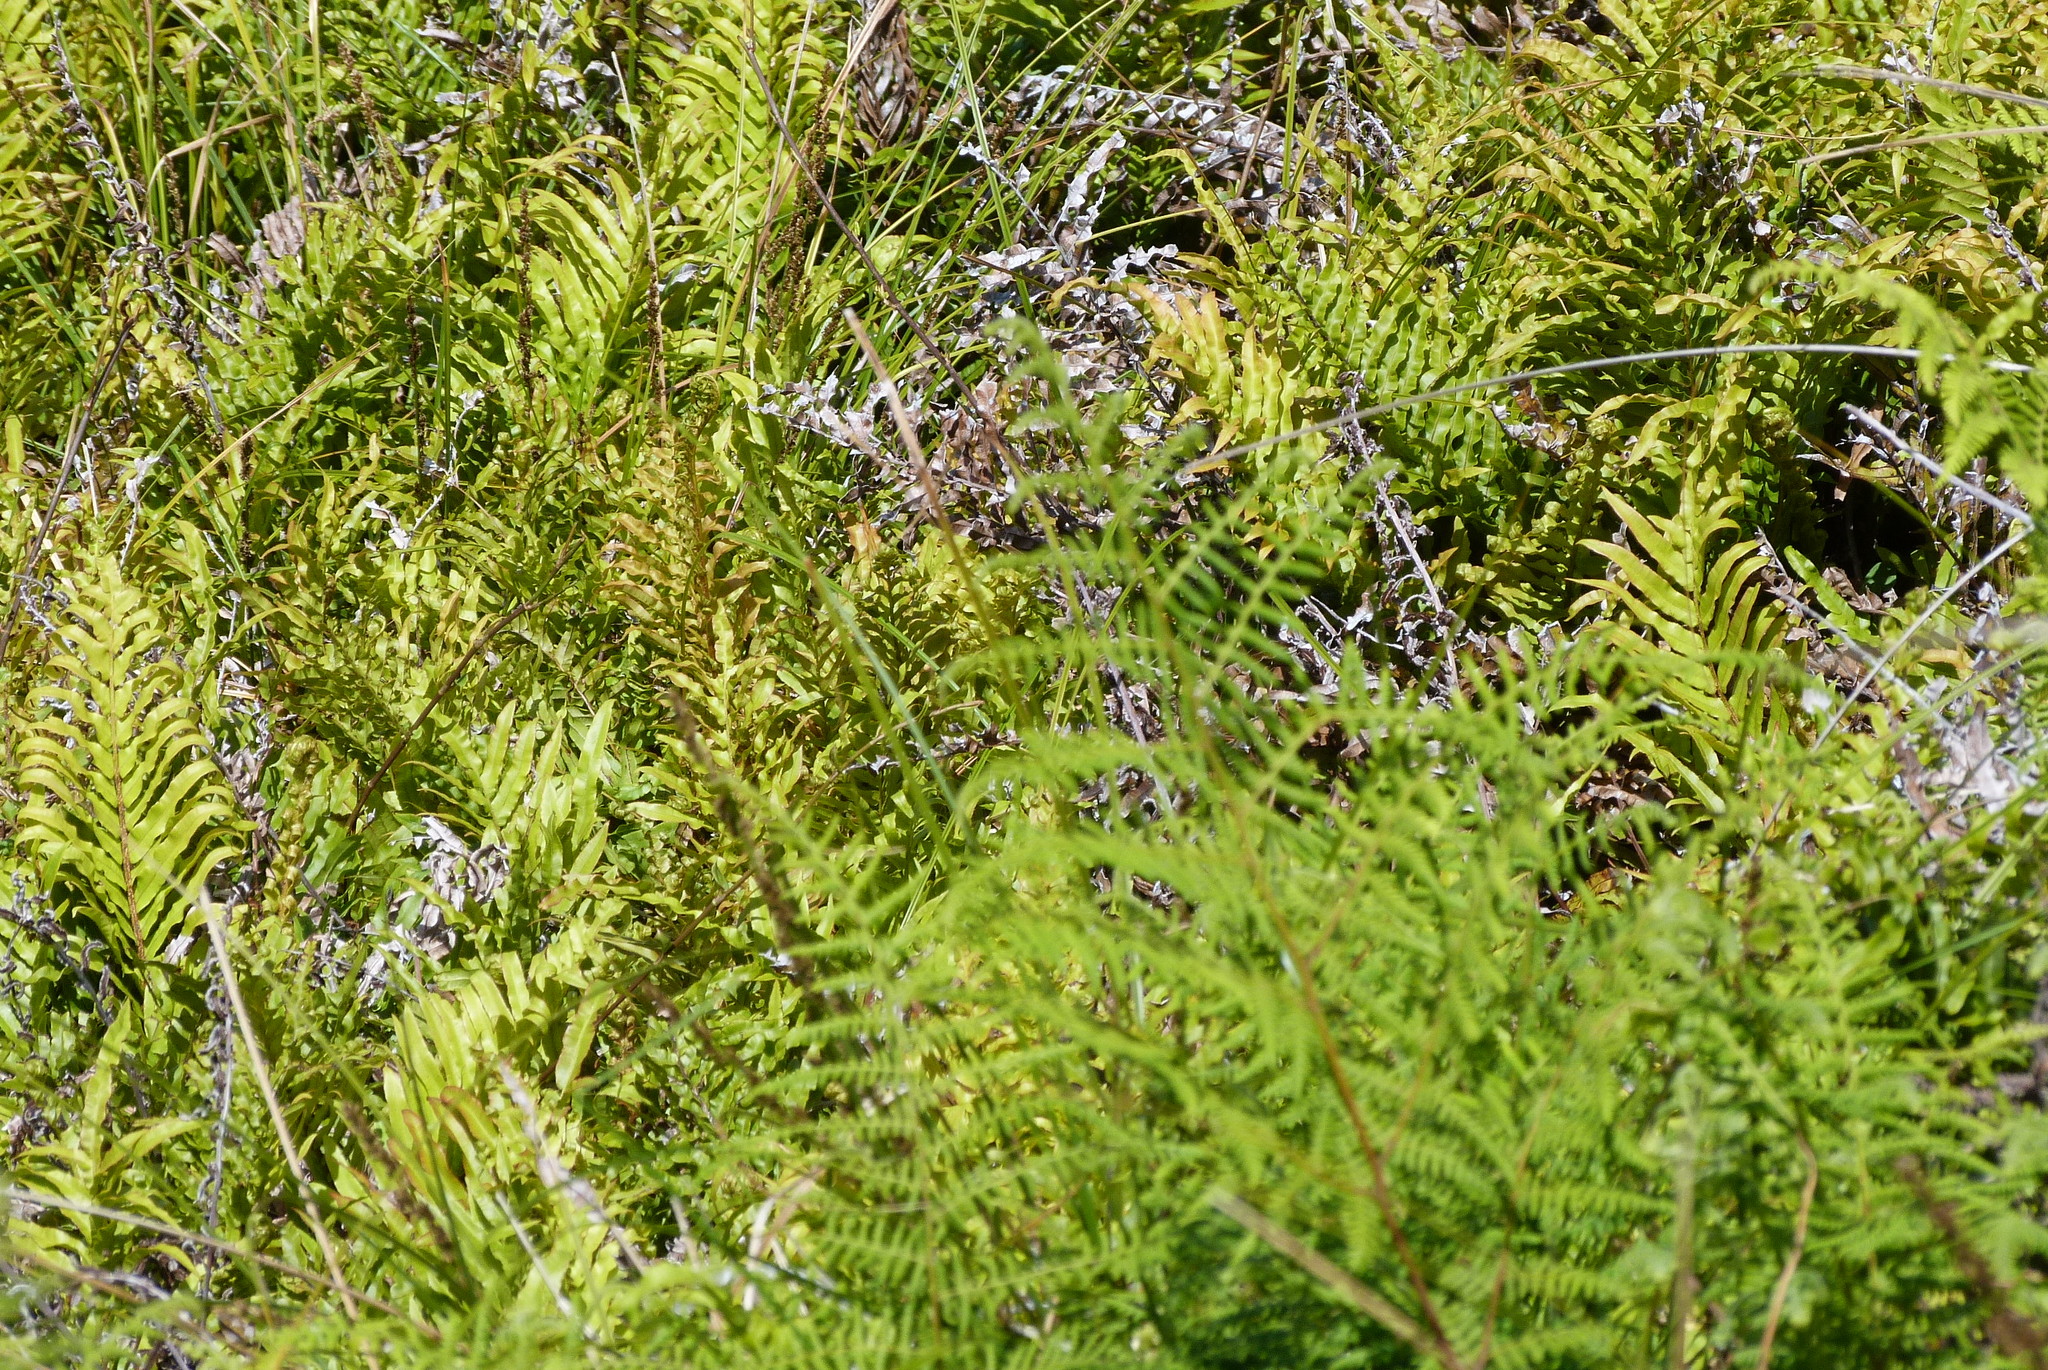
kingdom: Plantae
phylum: Tracheophyta
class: Polypodiopsida
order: Polypodiales
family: Blechnaceae
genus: Parablechnum
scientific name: Parablechnum novae-zelandiae
